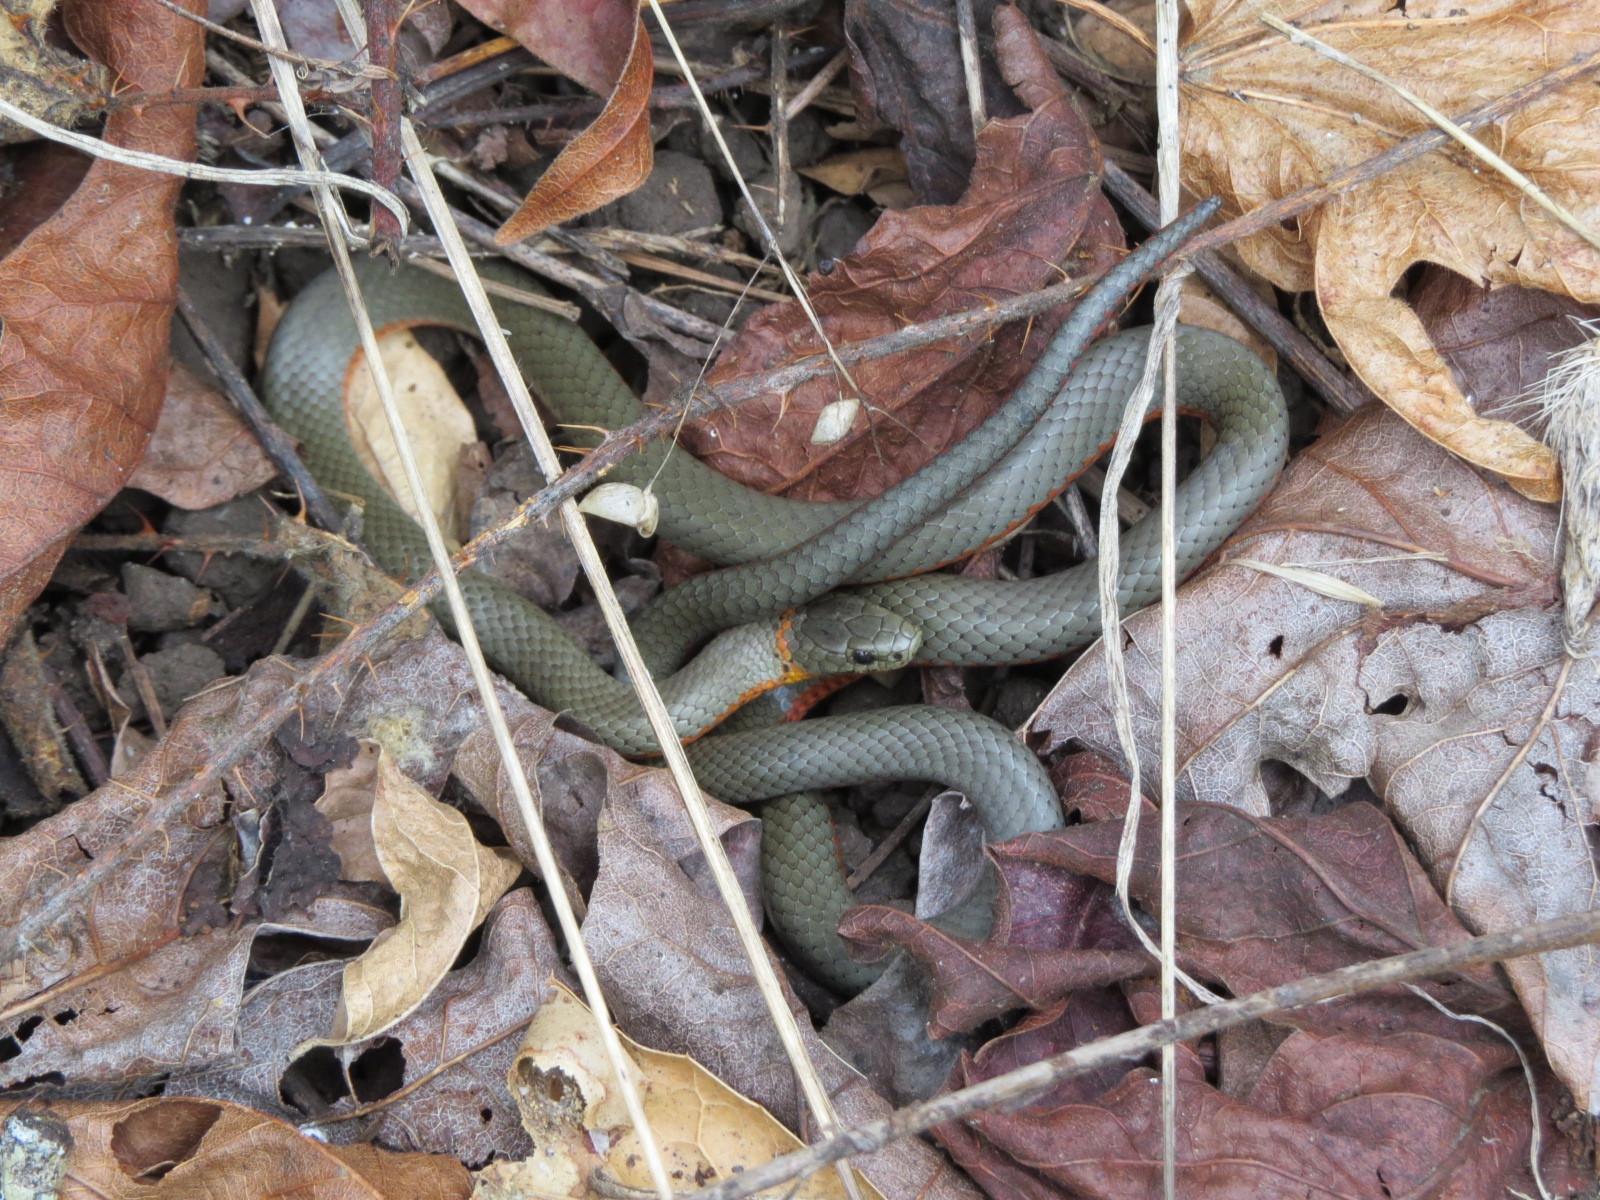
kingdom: Animalia
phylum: Chordata
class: Squamata
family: Colubridae
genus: Diadophis
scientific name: Diadophis punctatus
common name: Ringneck snake
